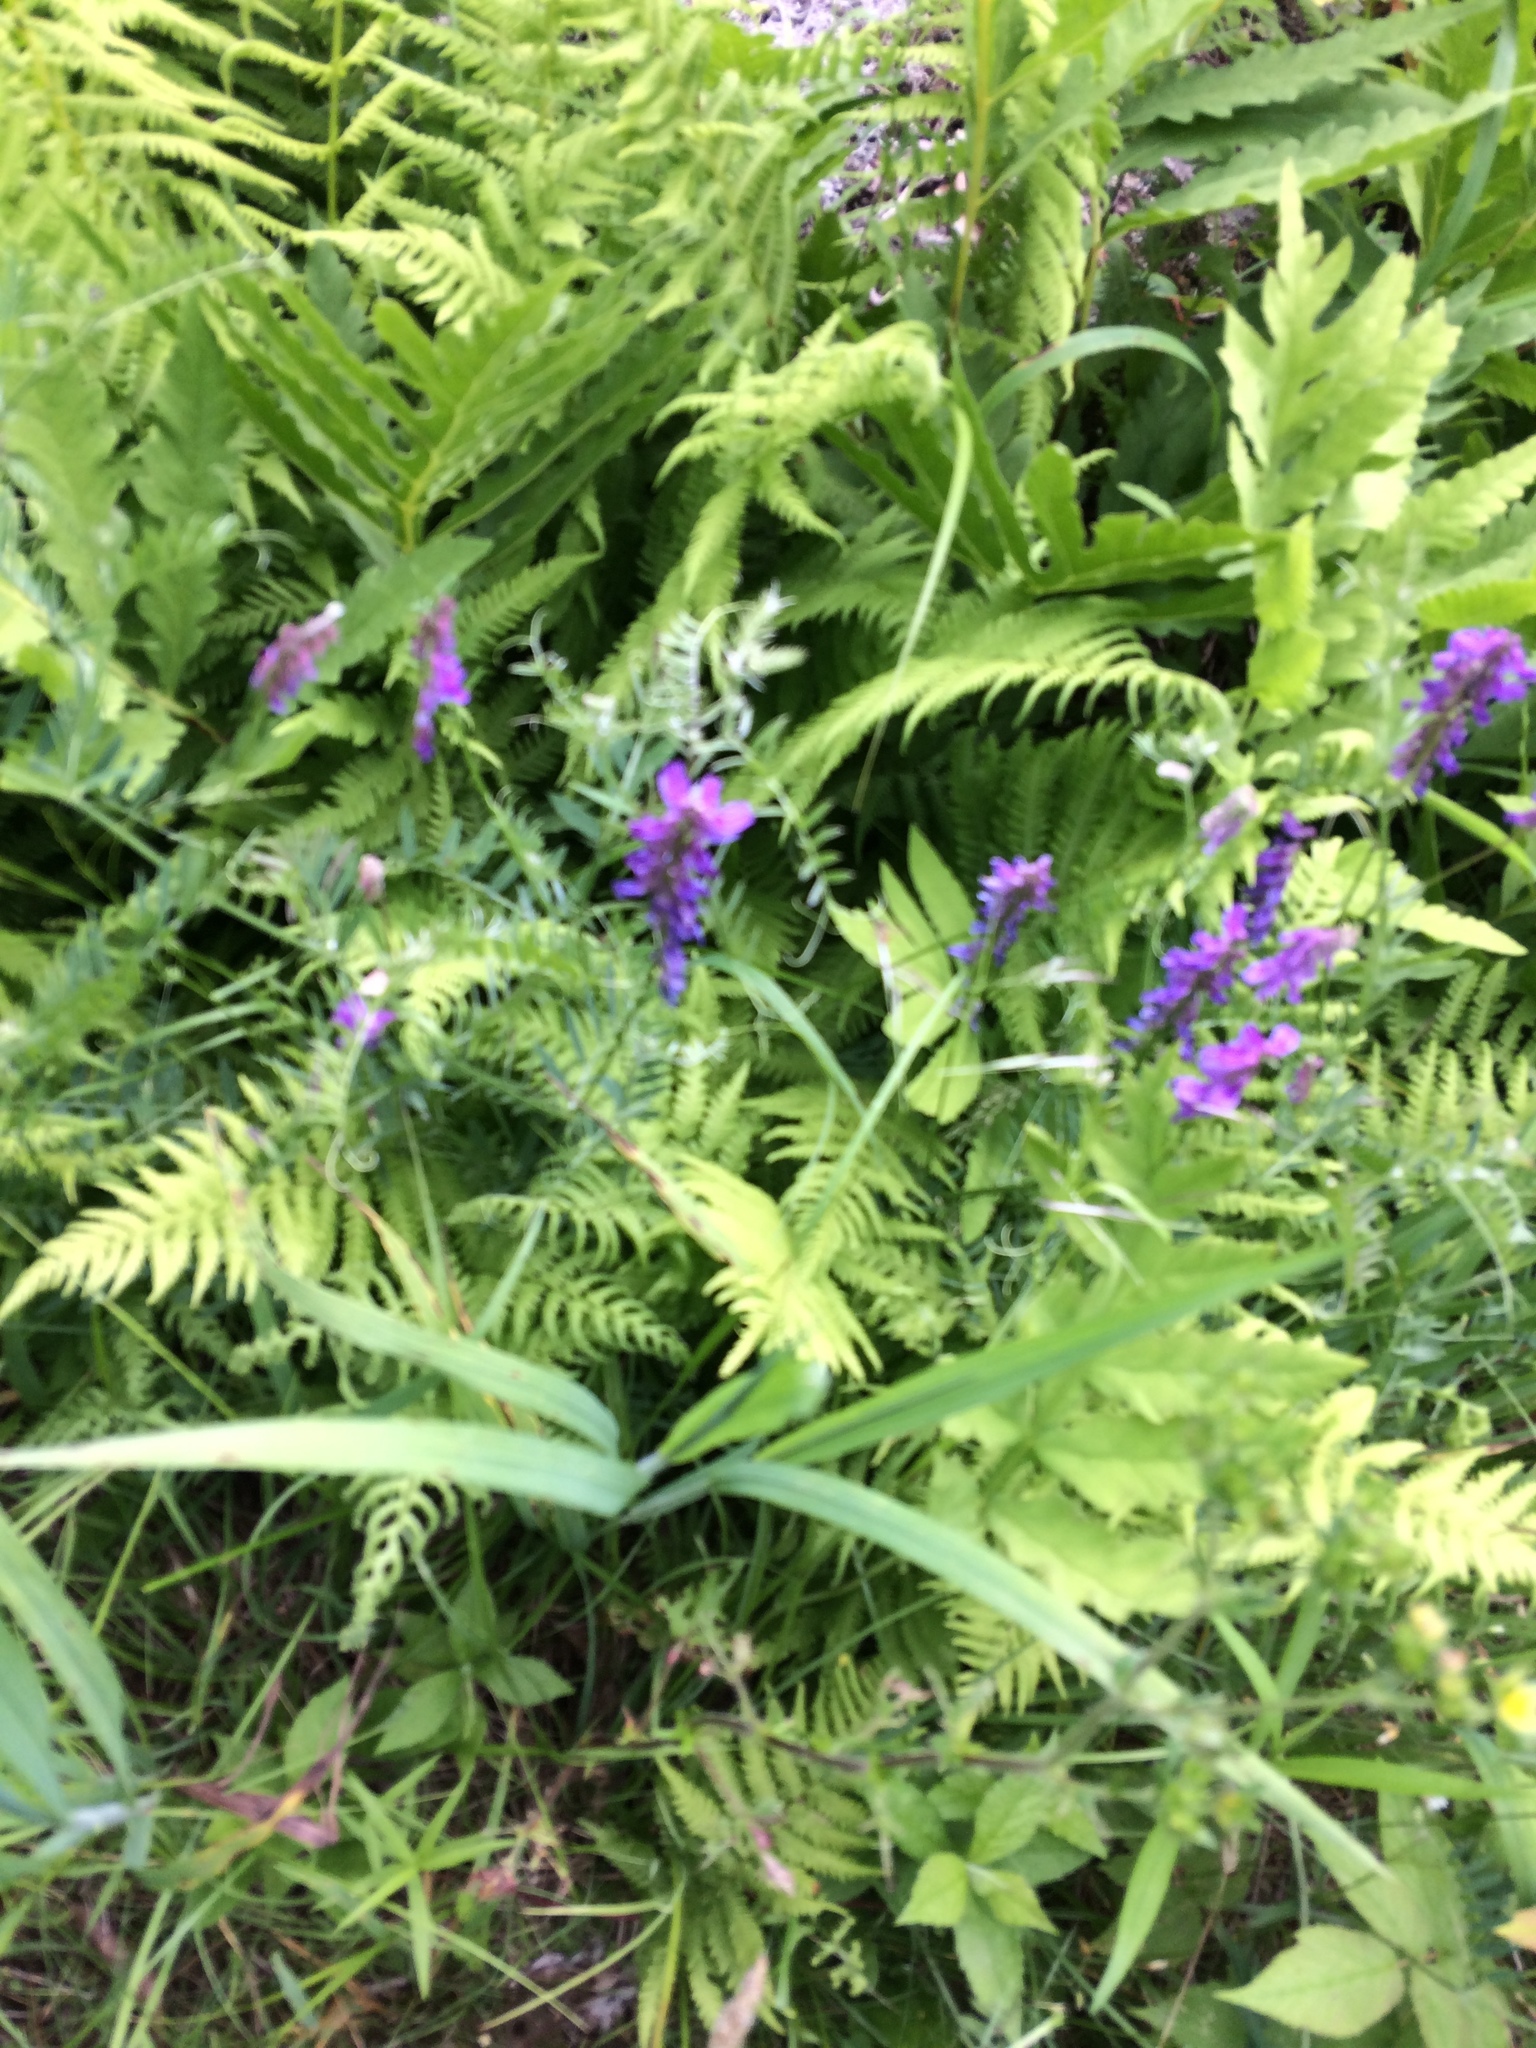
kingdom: Plantae
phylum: Tracheophyta
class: Magnoliopsida
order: Fabales
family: Fabaceae
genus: Vicia
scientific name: Vicia cracca
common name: Bird vetch
